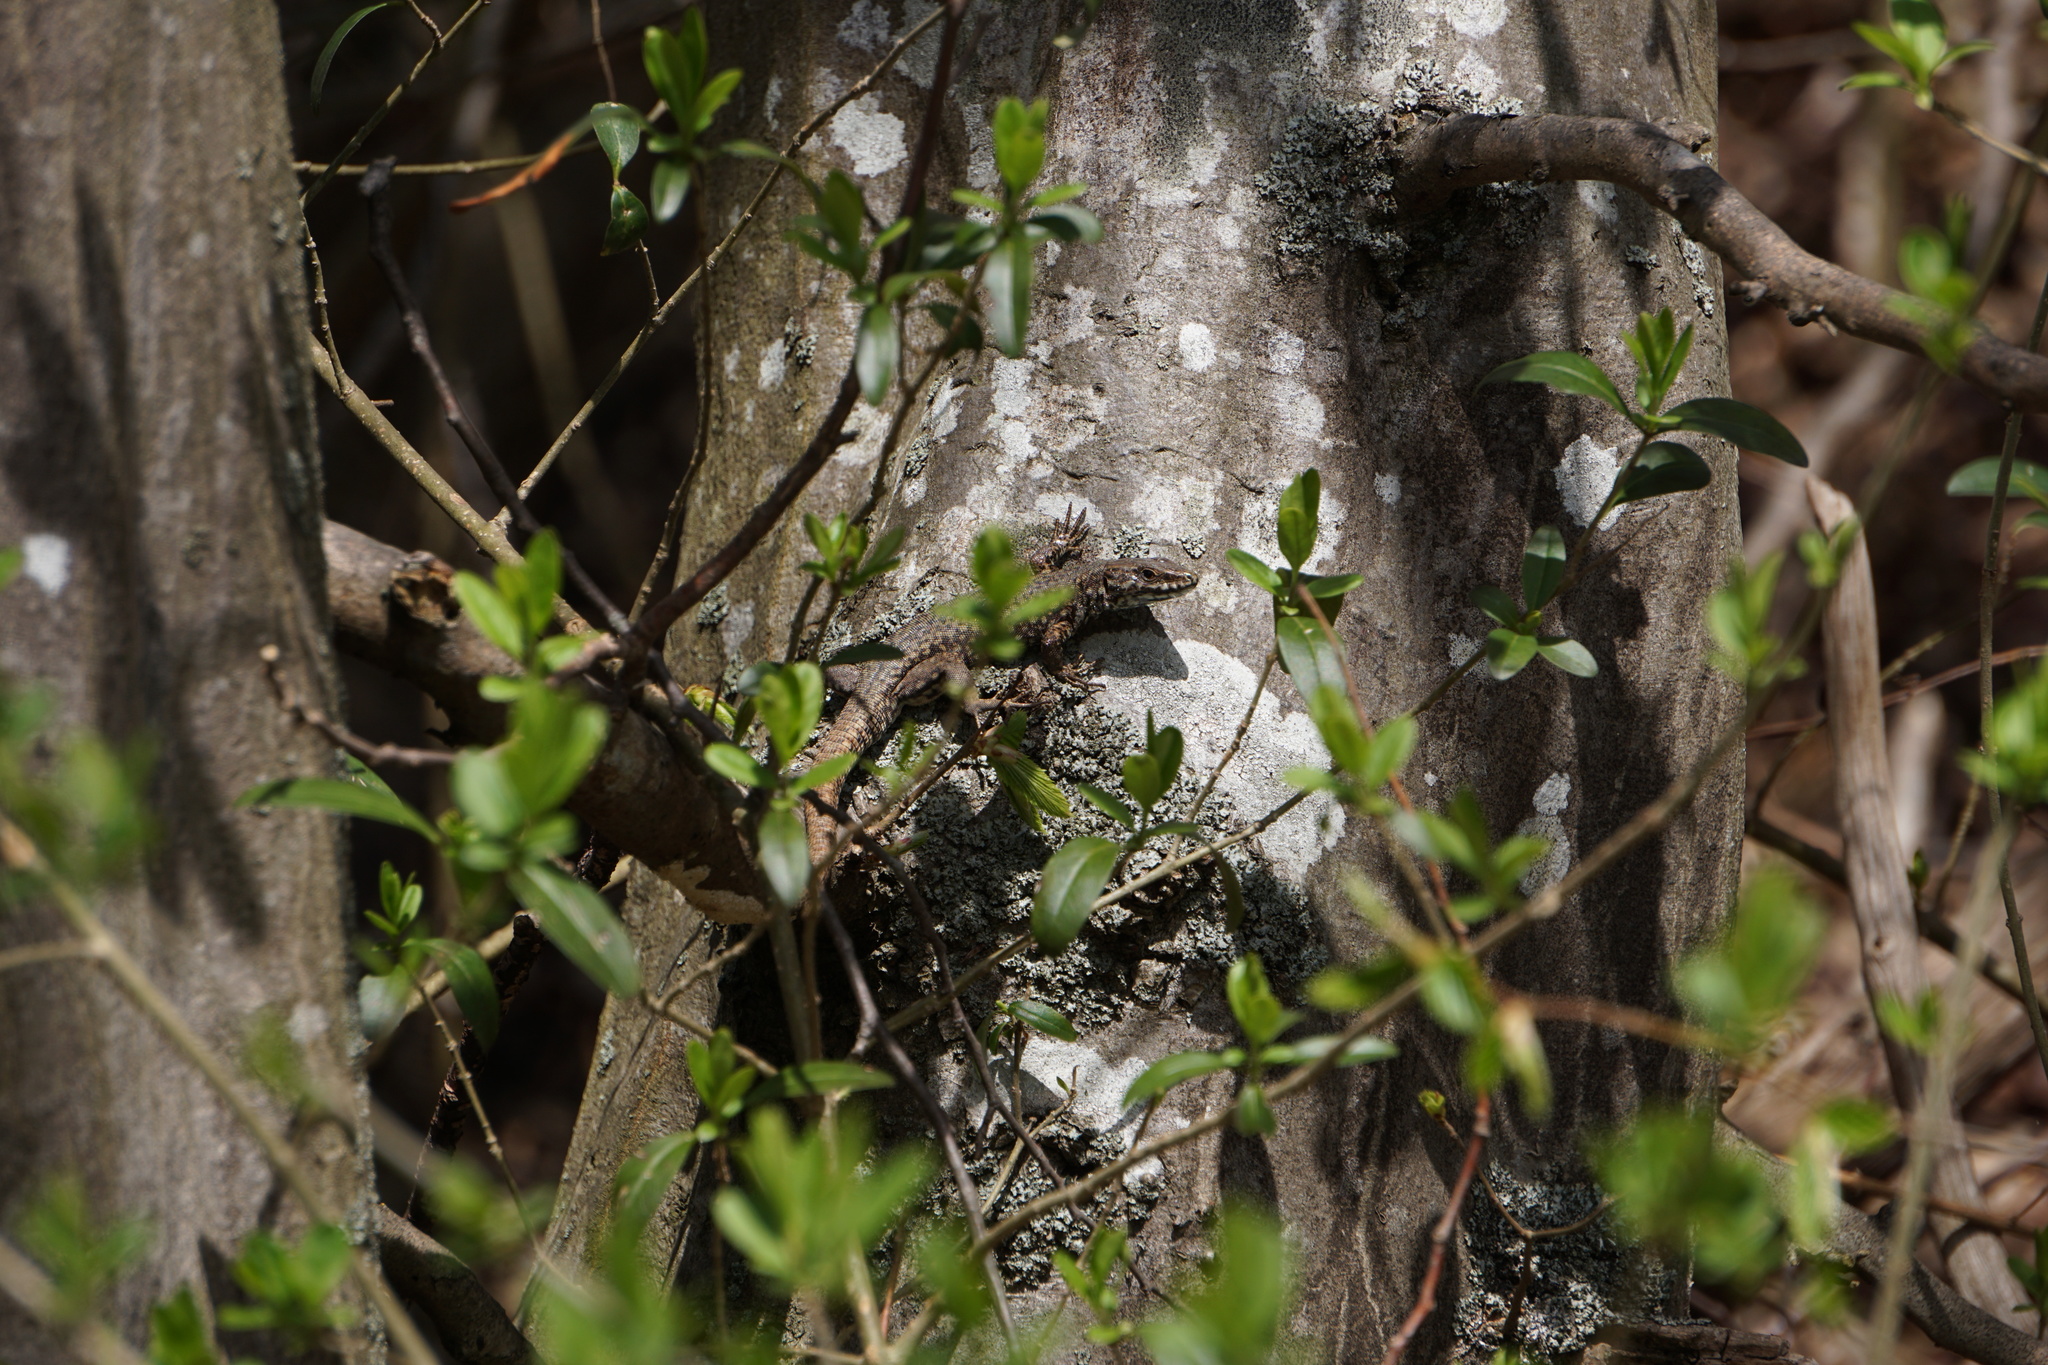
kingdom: Animalia
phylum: Chordata
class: Squamata
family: Lacertidae
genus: Podarcis
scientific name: Podarcis muralis
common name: Common wall lizard
